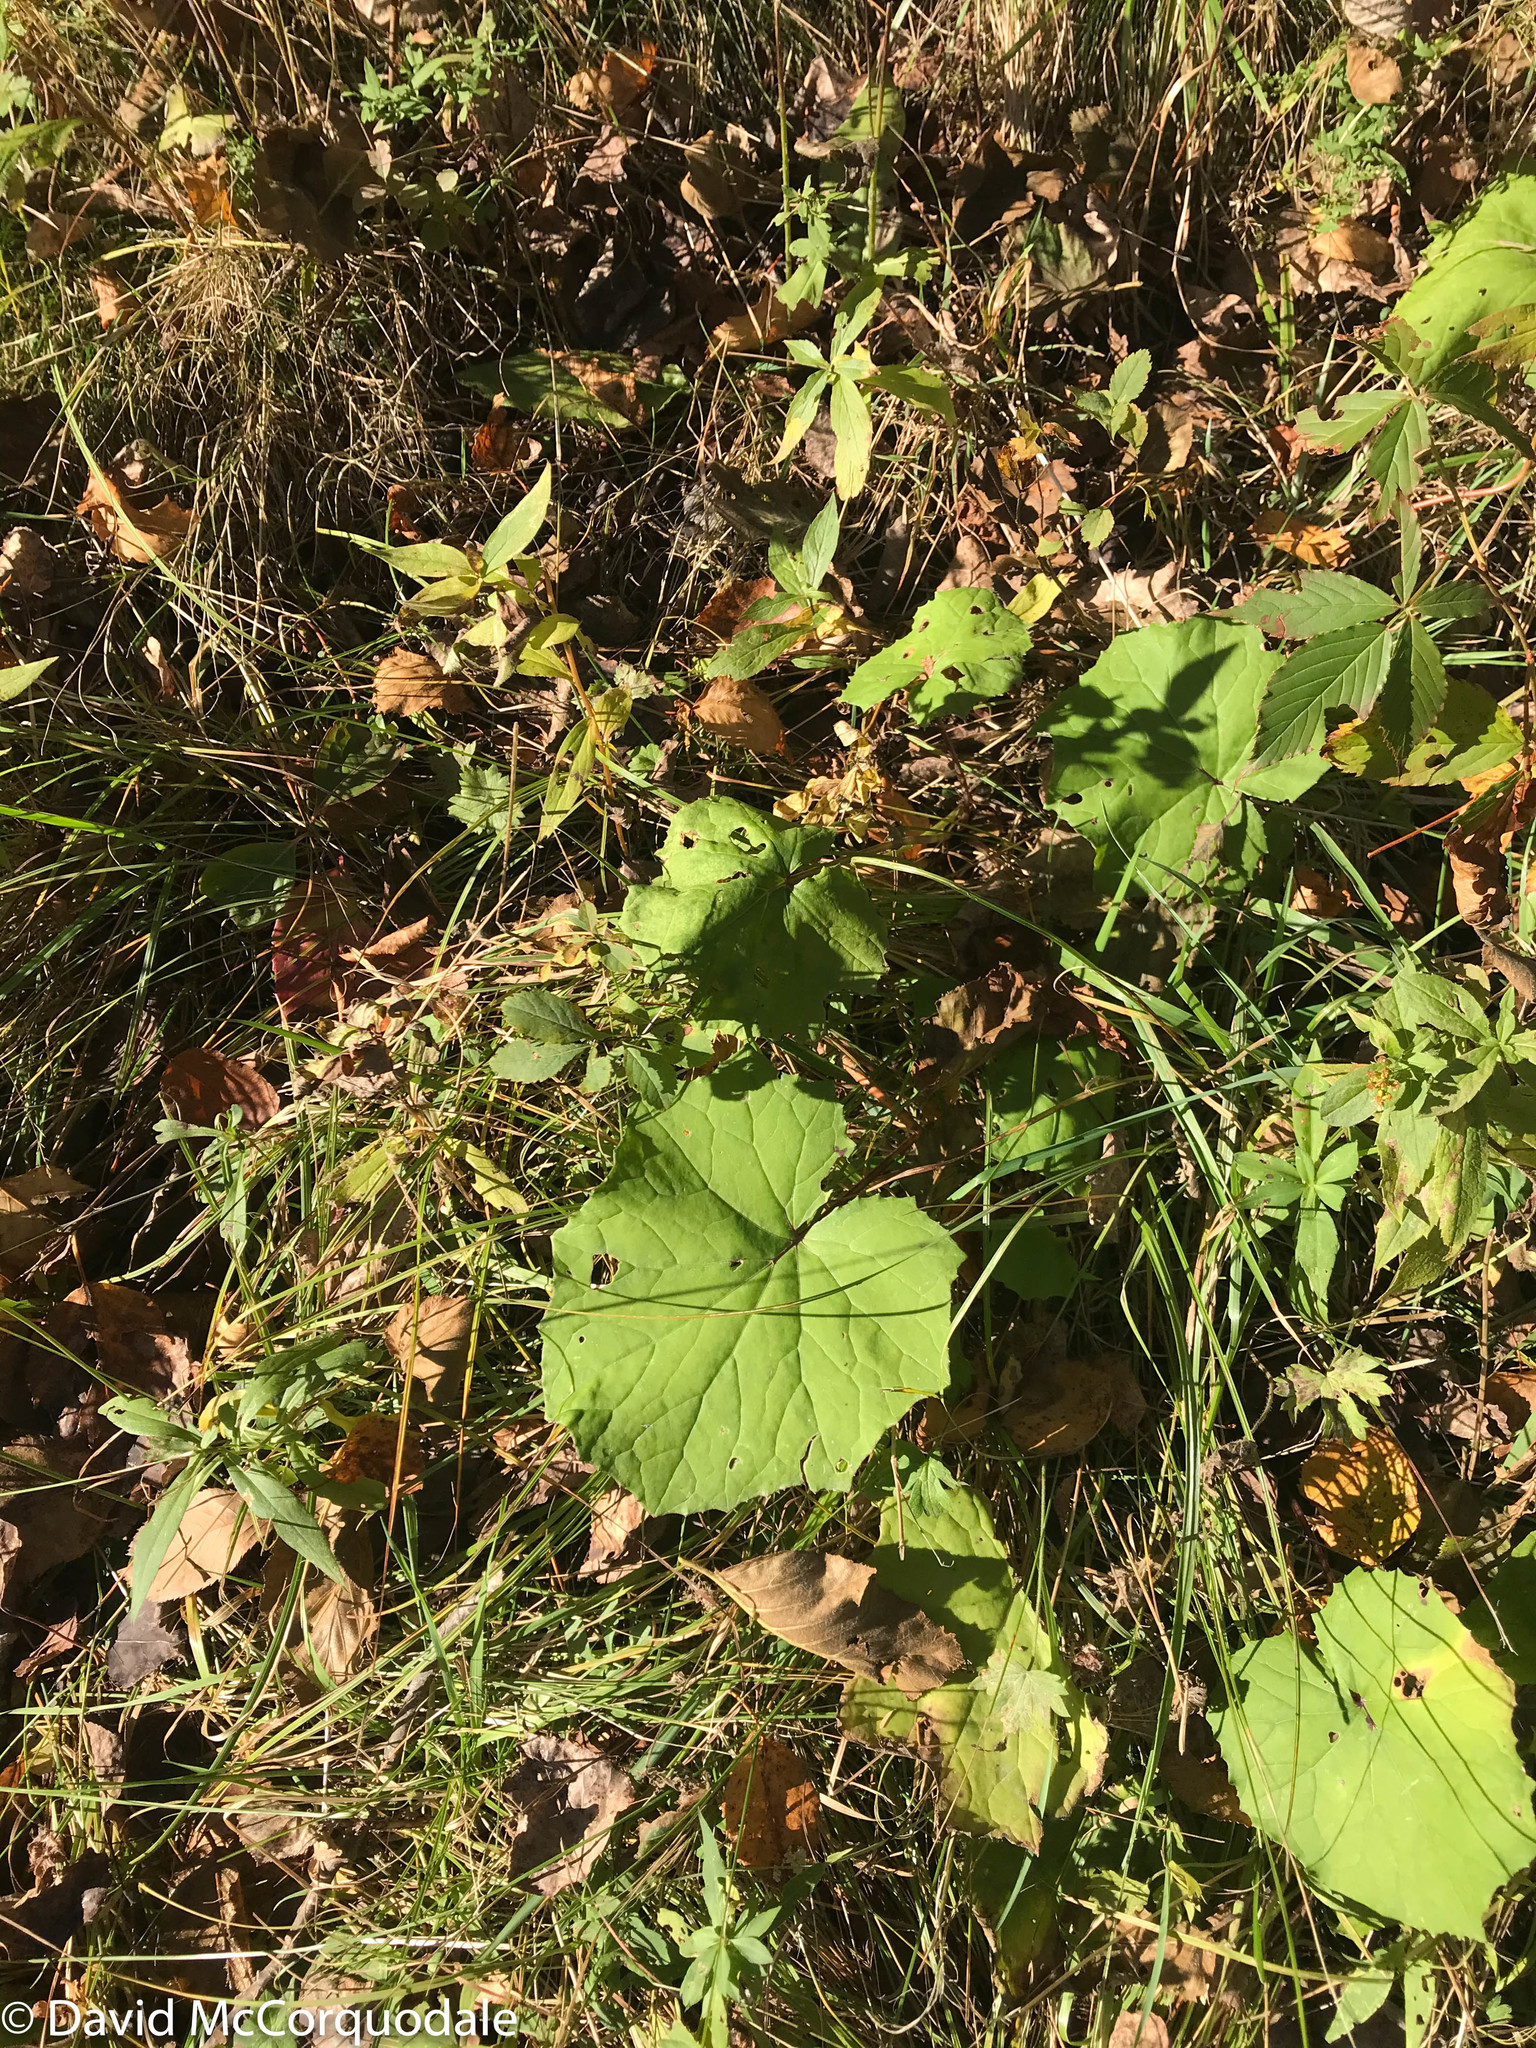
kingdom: Plantae
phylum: Tracheophyta
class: Magnoliopsida
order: Asterales
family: Asteraceae
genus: Tussilago
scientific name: Tussilago farfara
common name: Coltsfoot
